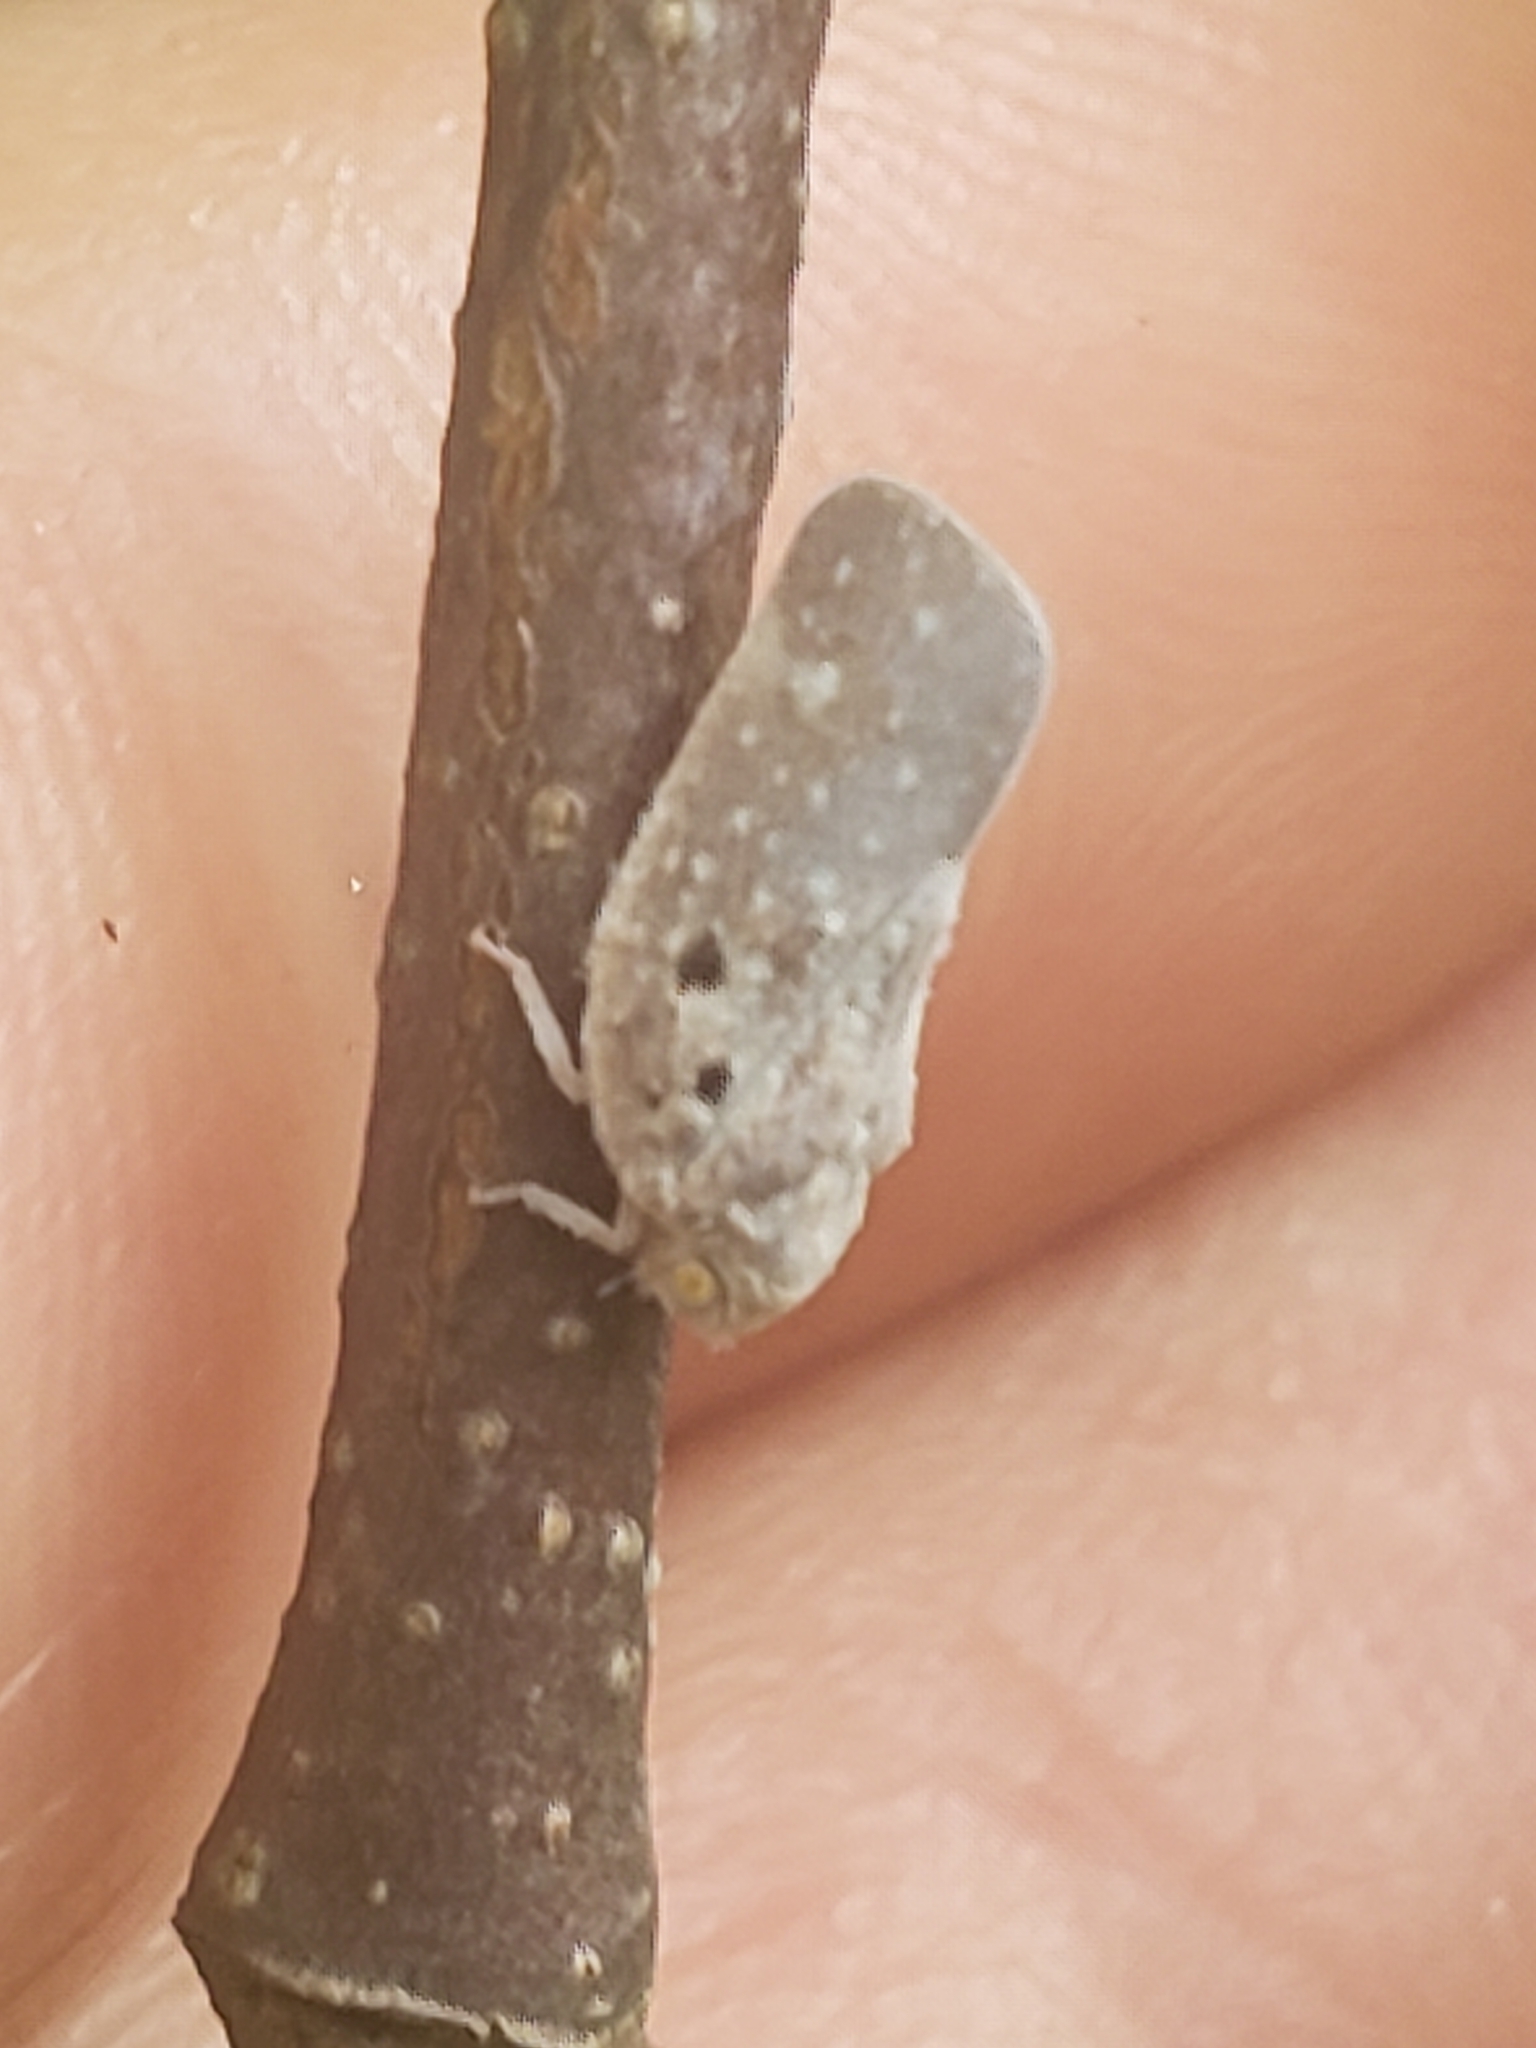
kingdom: Animalia
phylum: Arthropoda
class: Insecta
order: Hemiptera
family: Flatidae
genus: Metcalfa
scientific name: Metcalfa pruinosa
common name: Citrus flatid planthopper
